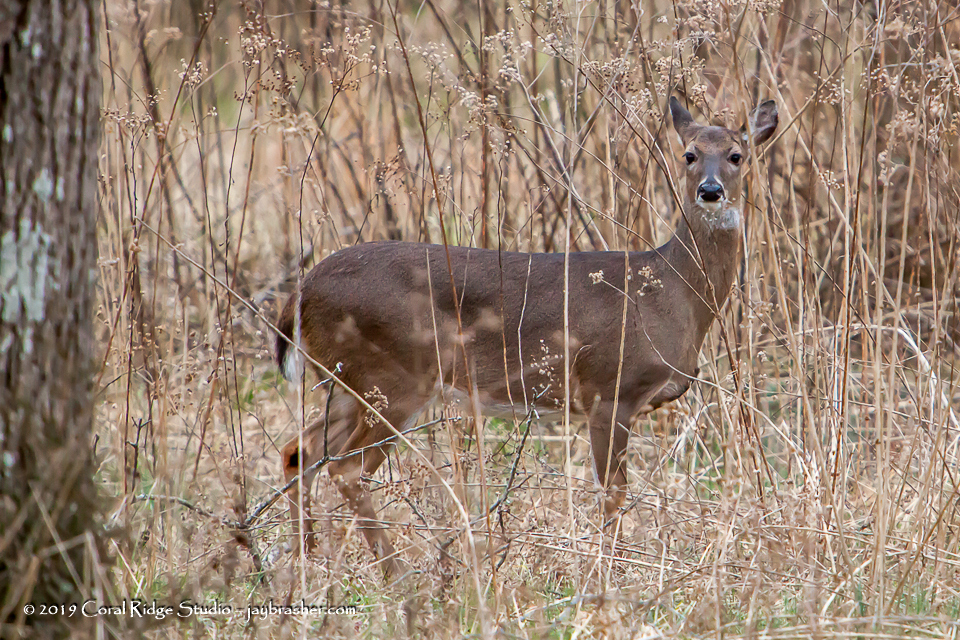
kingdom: Animalia
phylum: Chordata
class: Mammalia
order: Artiodactyla
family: Cervidae
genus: Odocoileus
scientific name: Odocoileus virginianus
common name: White-tailed deer
